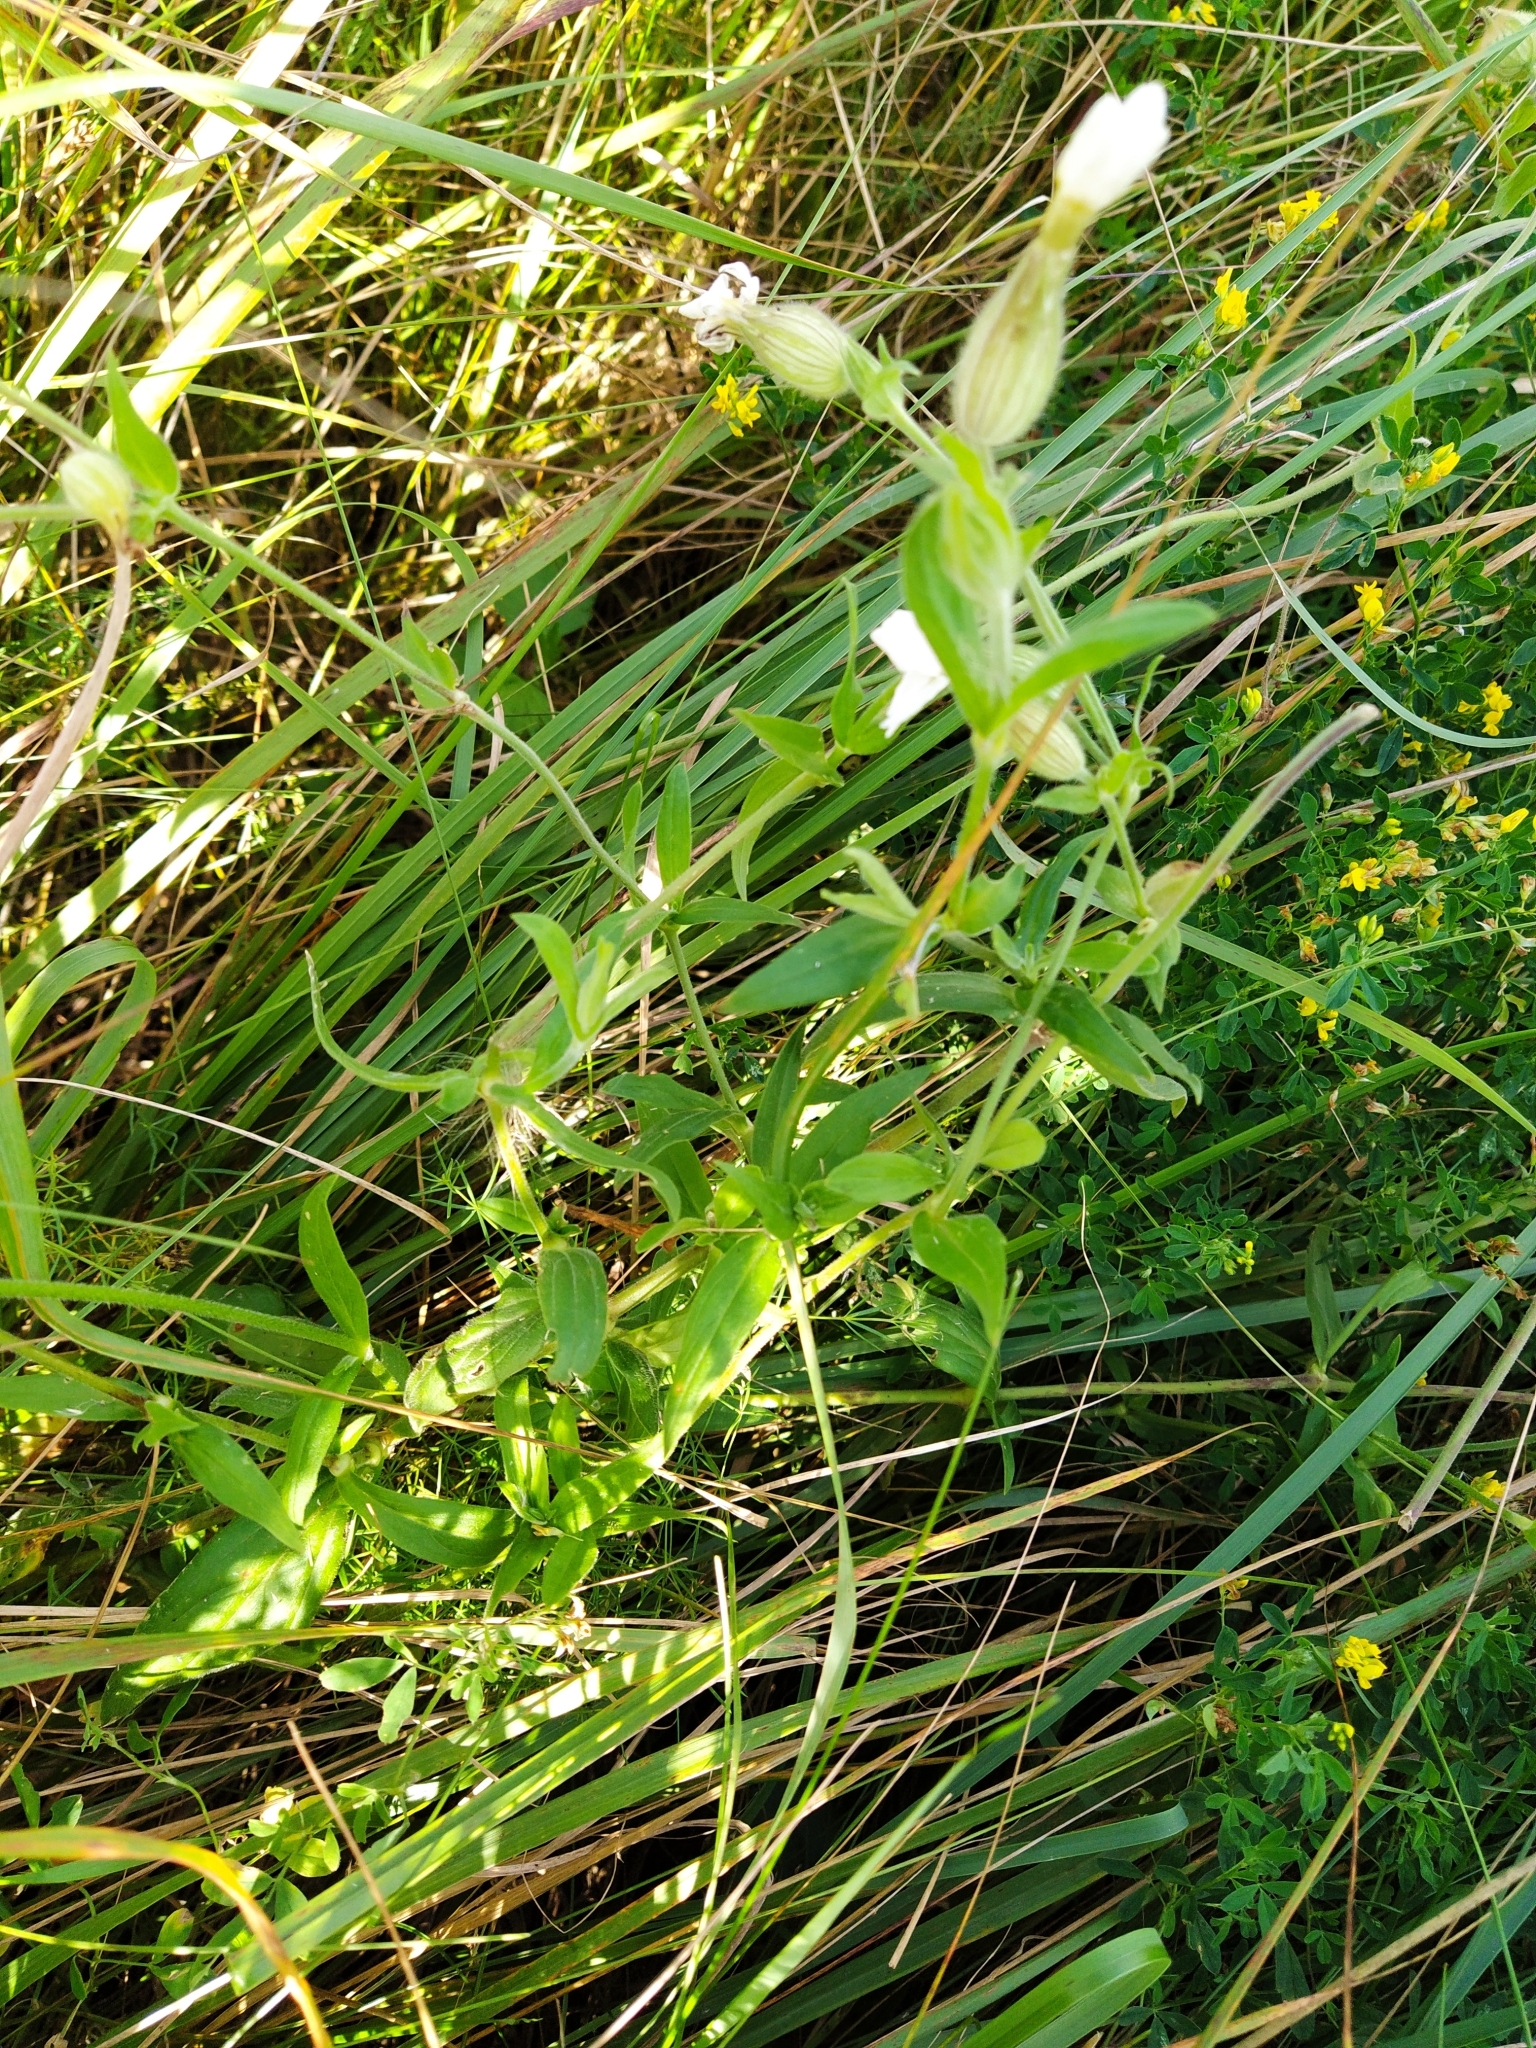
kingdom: Plantae
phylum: Tracheophyta
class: Magnoliopsida
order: Caryophyllales
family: Caryophyllaceae
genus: Silene
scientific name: Silene latifolia
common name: White campion
